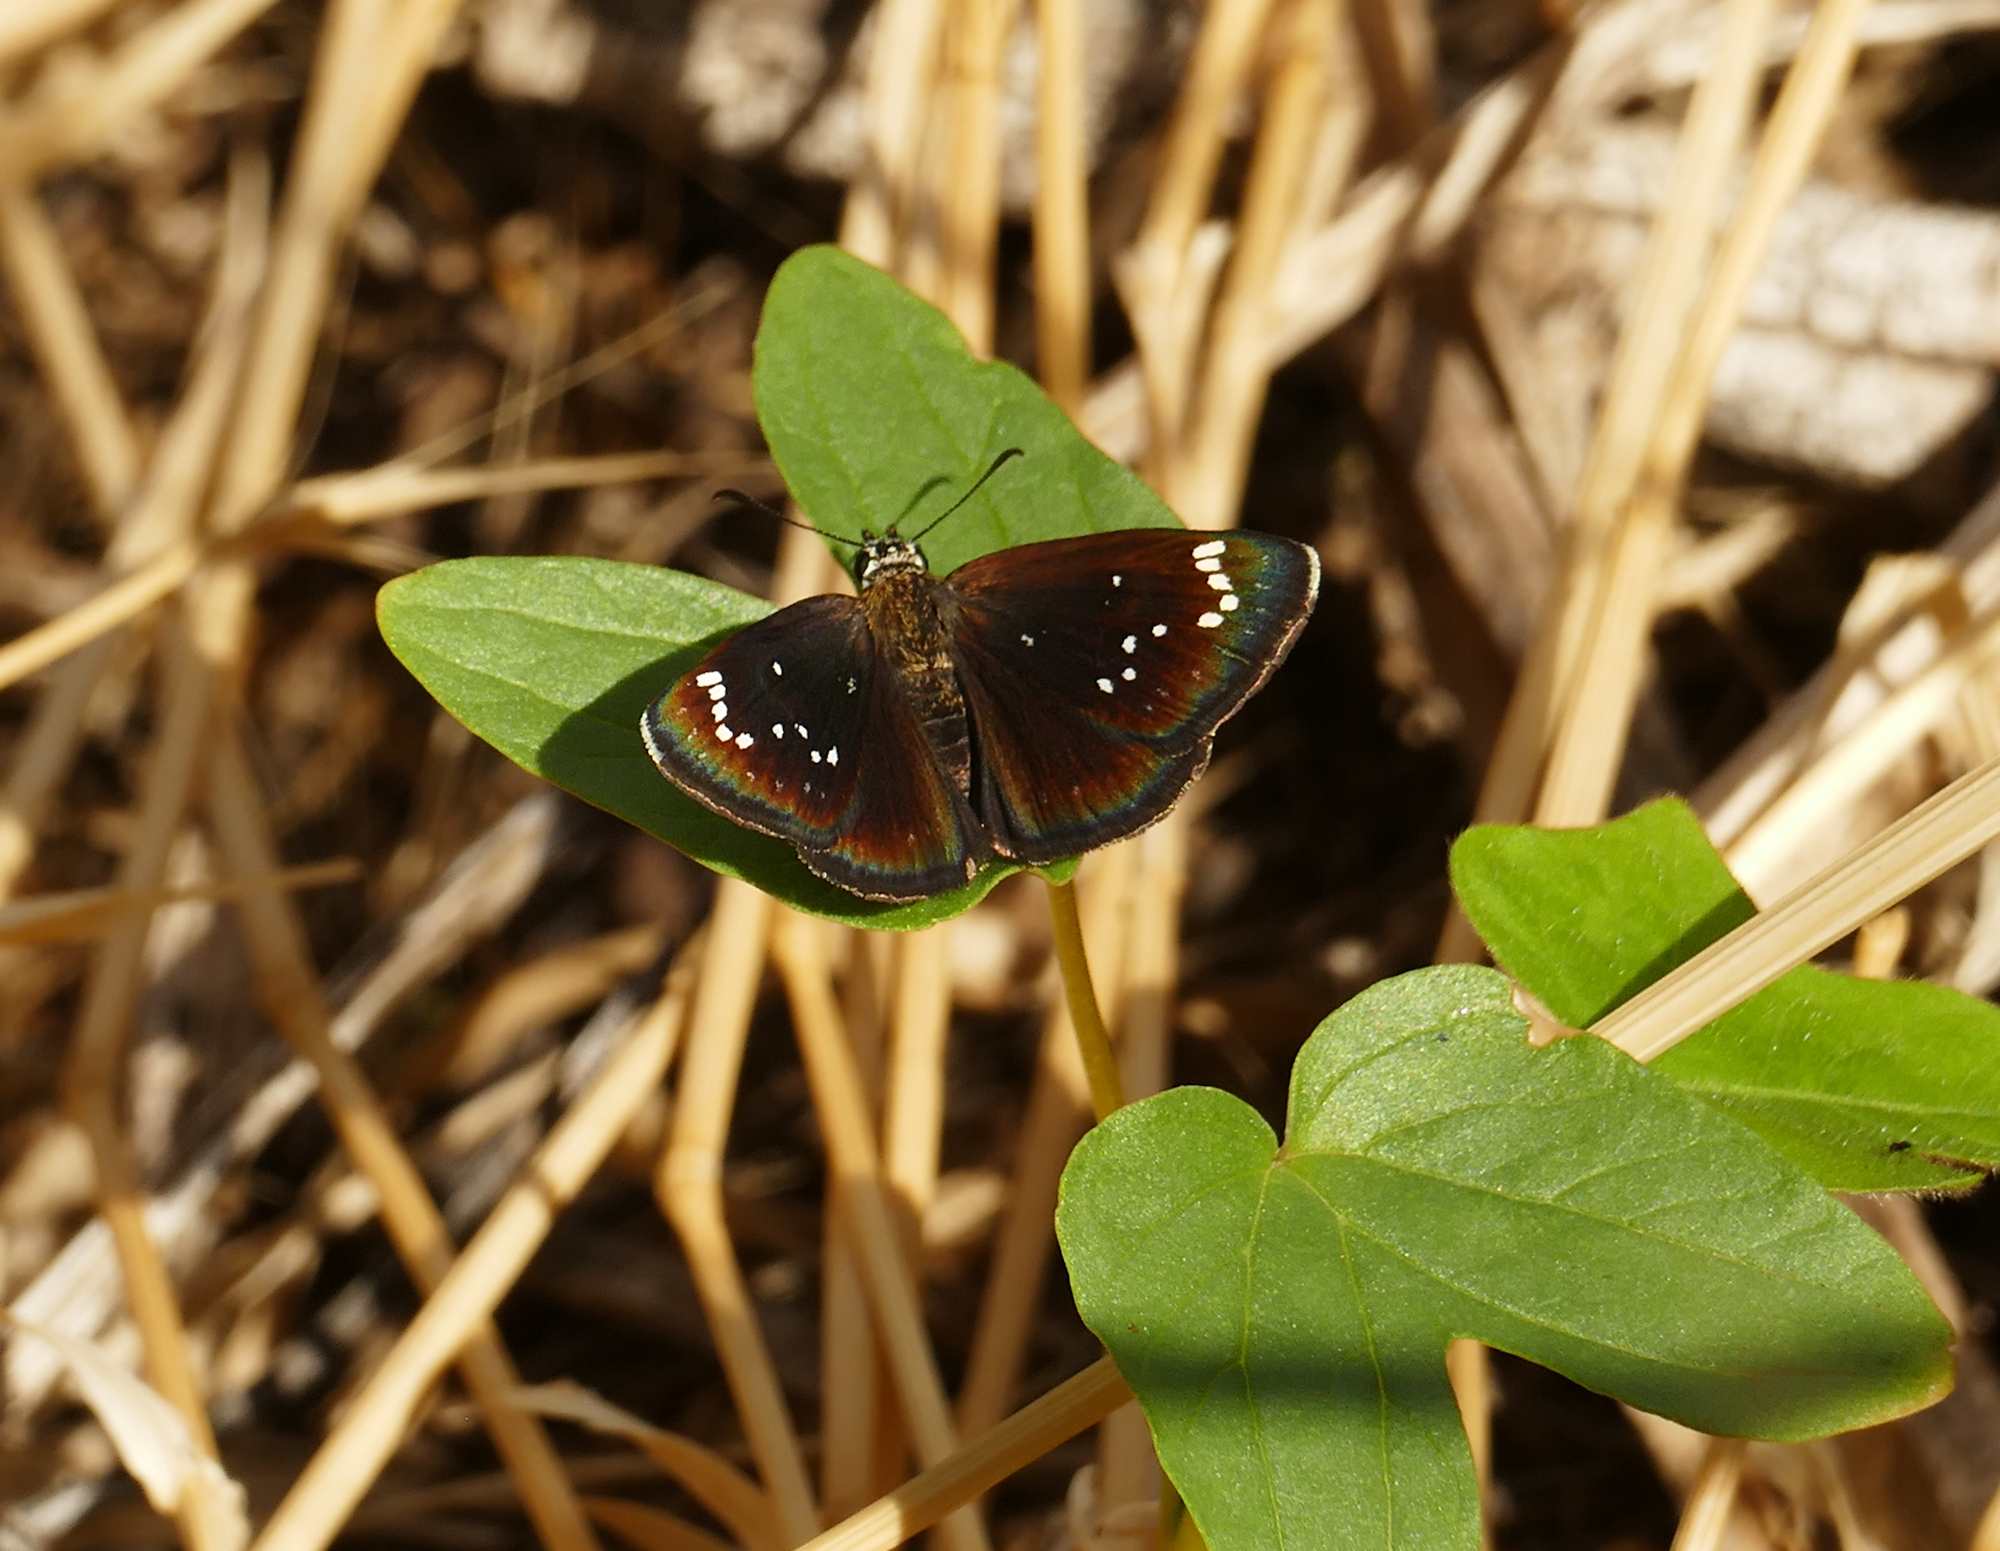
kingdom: Animalia
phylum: Arthropoda
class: Insecta
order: Lepidoptera
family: Hesperiidae
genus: Pholisora
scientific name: Pholisora catullus
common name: Common sootywing
